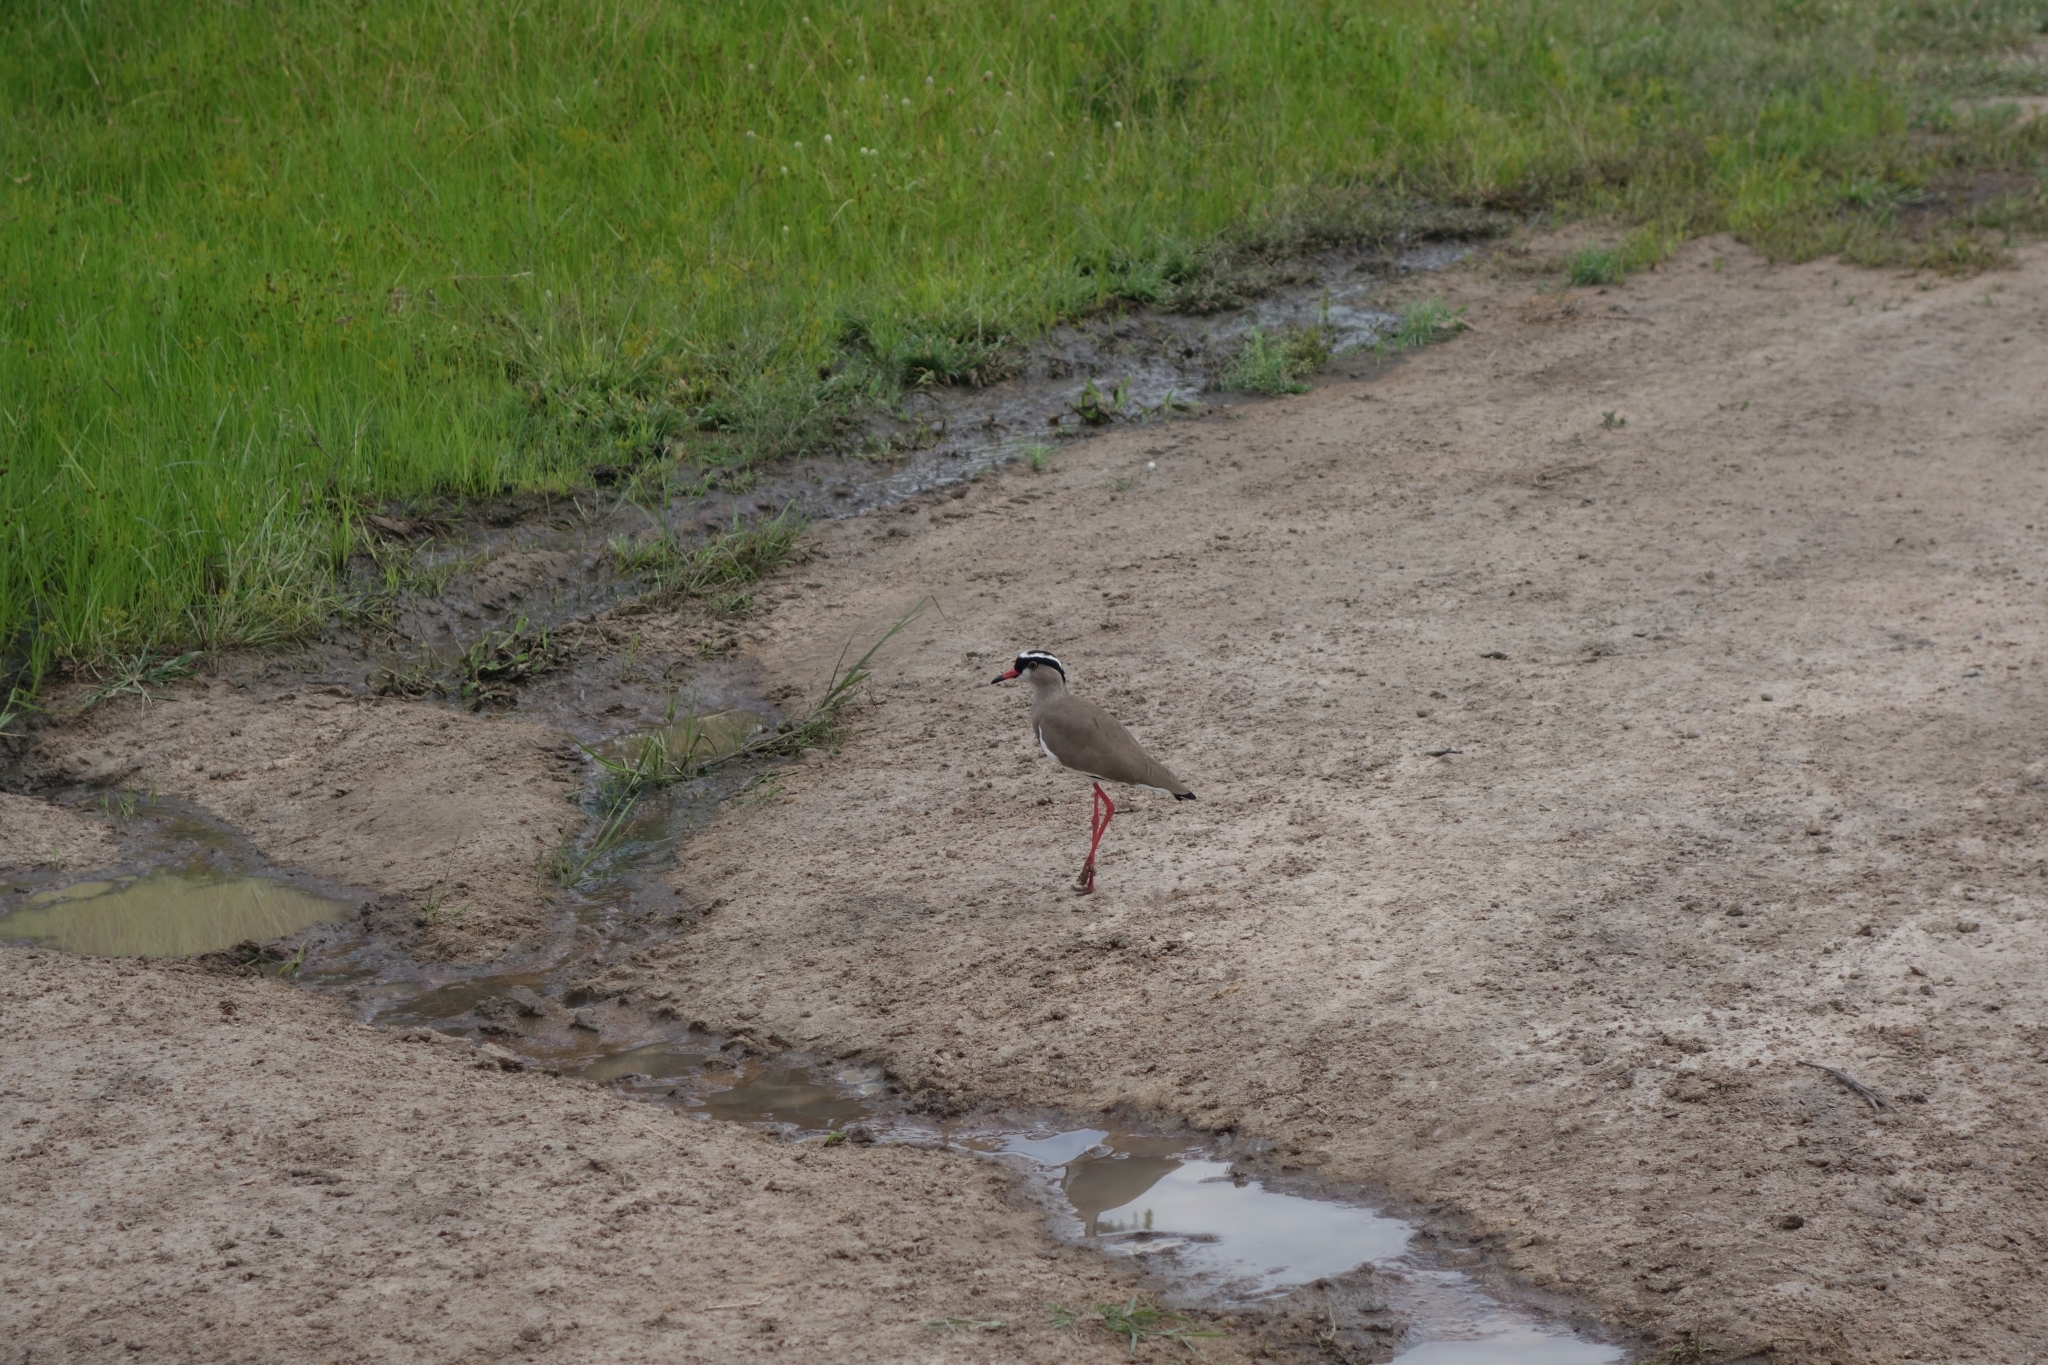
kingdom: Animalia
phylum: Chordata
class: Aves
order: Charadriiformes
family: Charadriidae
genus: Vanellus
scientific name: Vanellus coronatus
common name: Crowned lapwing
